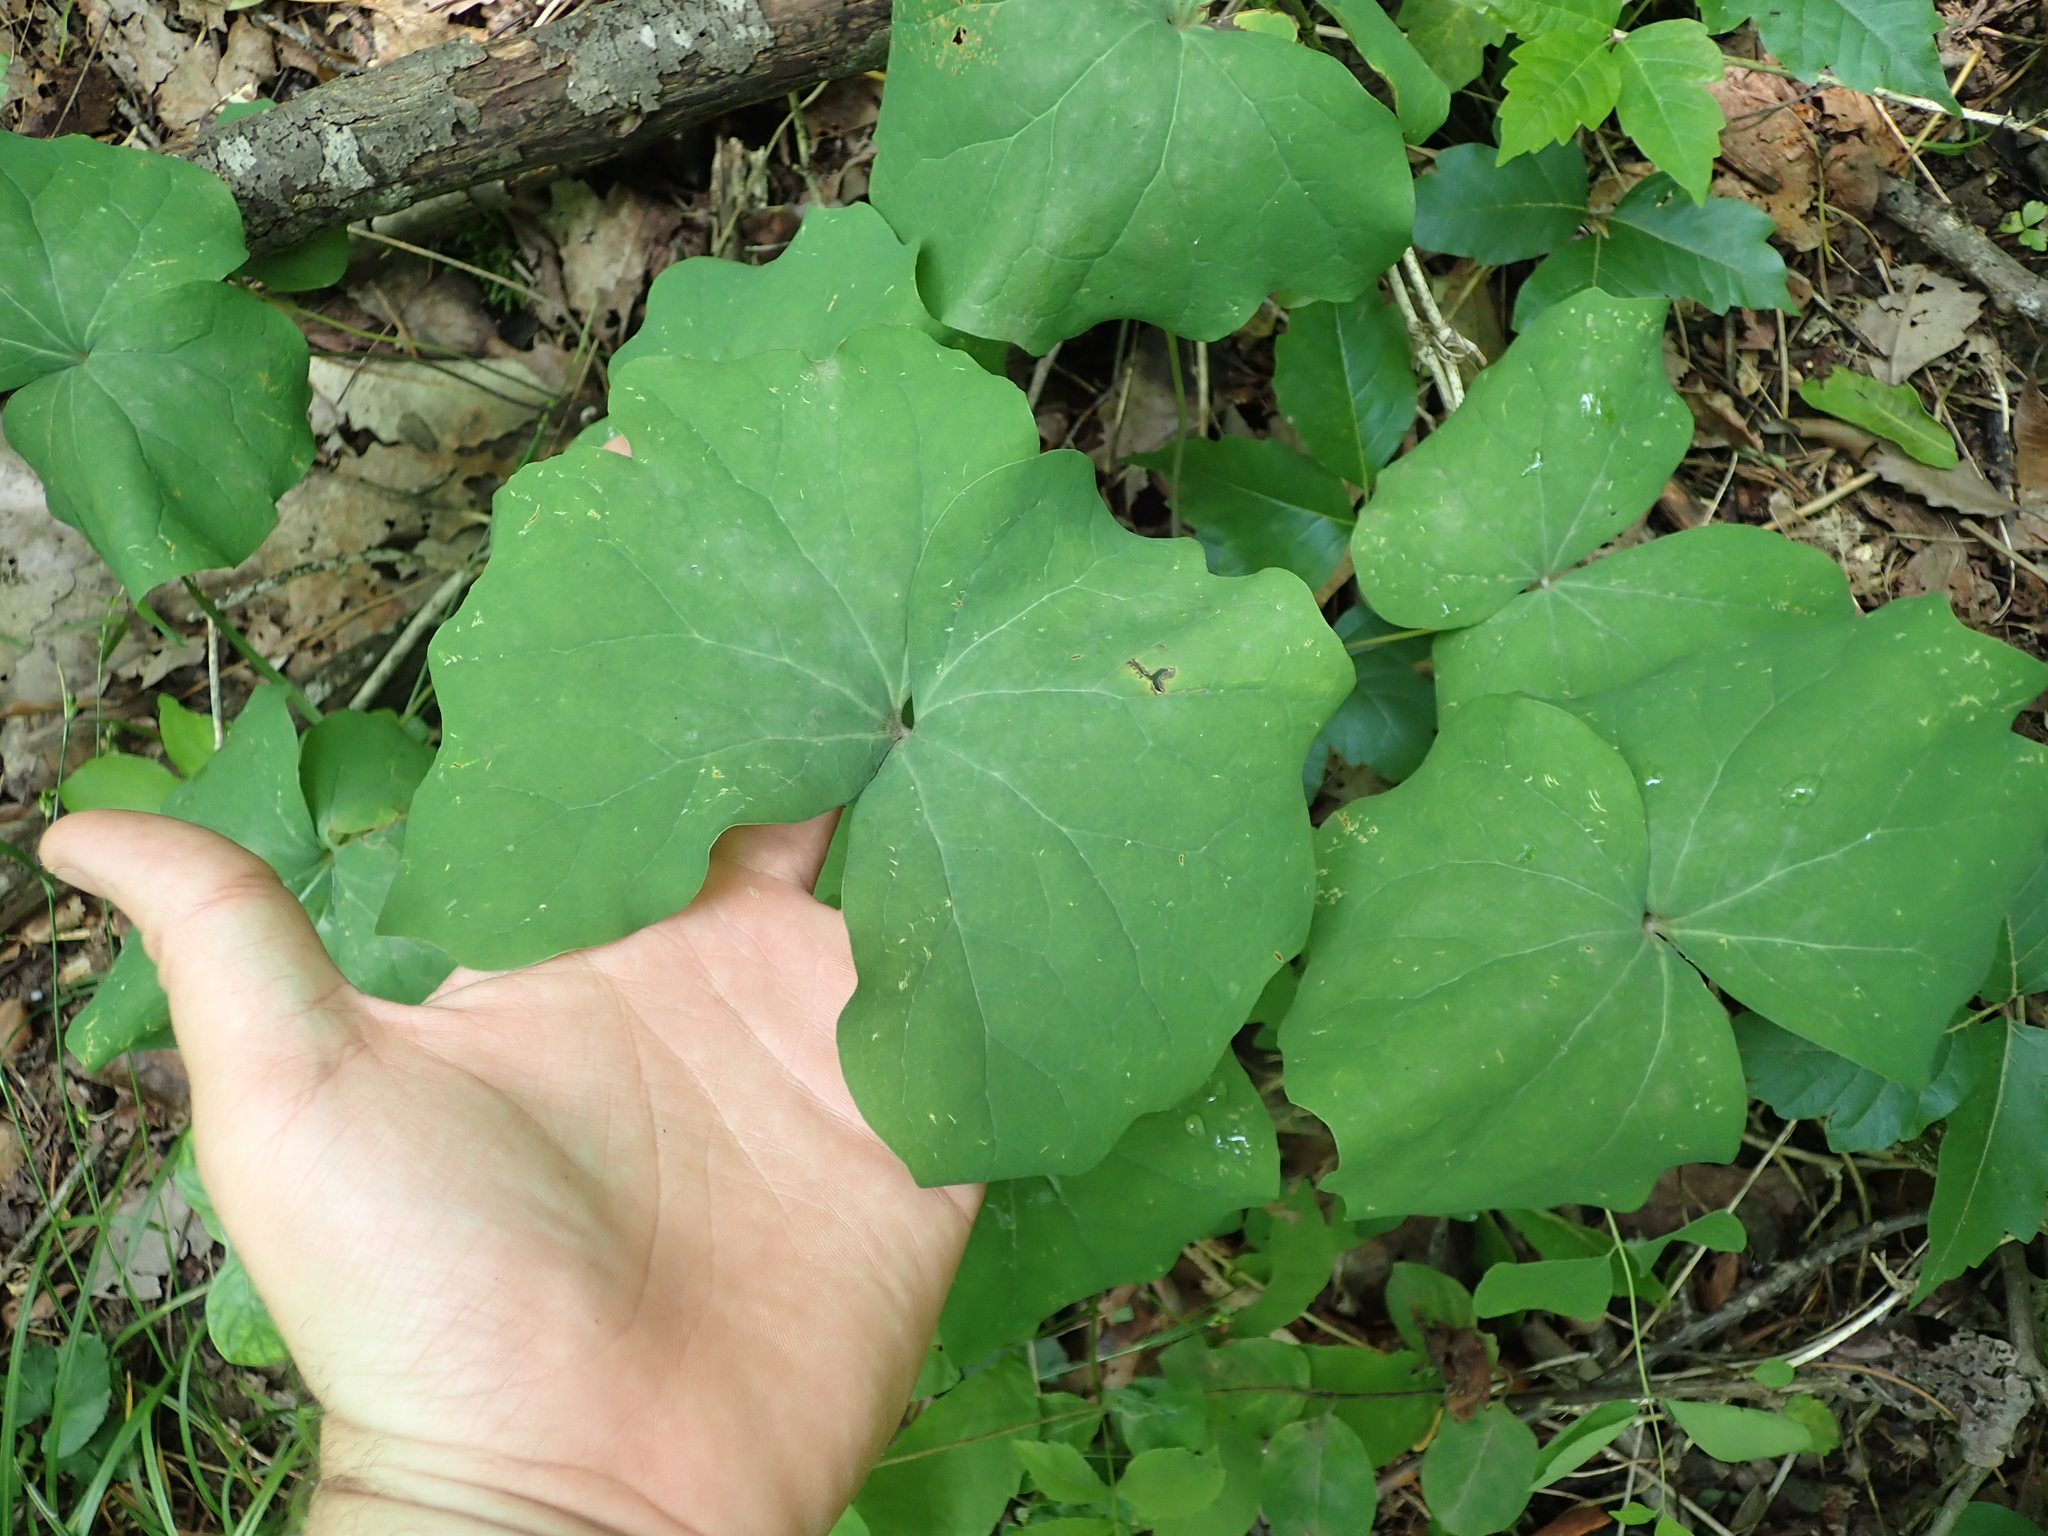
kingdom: Plantae
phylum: Tracheophyta
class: Magnoliopsida
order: Ranunculales
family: Berberidaceae
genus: Jeffersonia
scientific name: Jeffersonia diphylla
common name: Rheumatism-root
